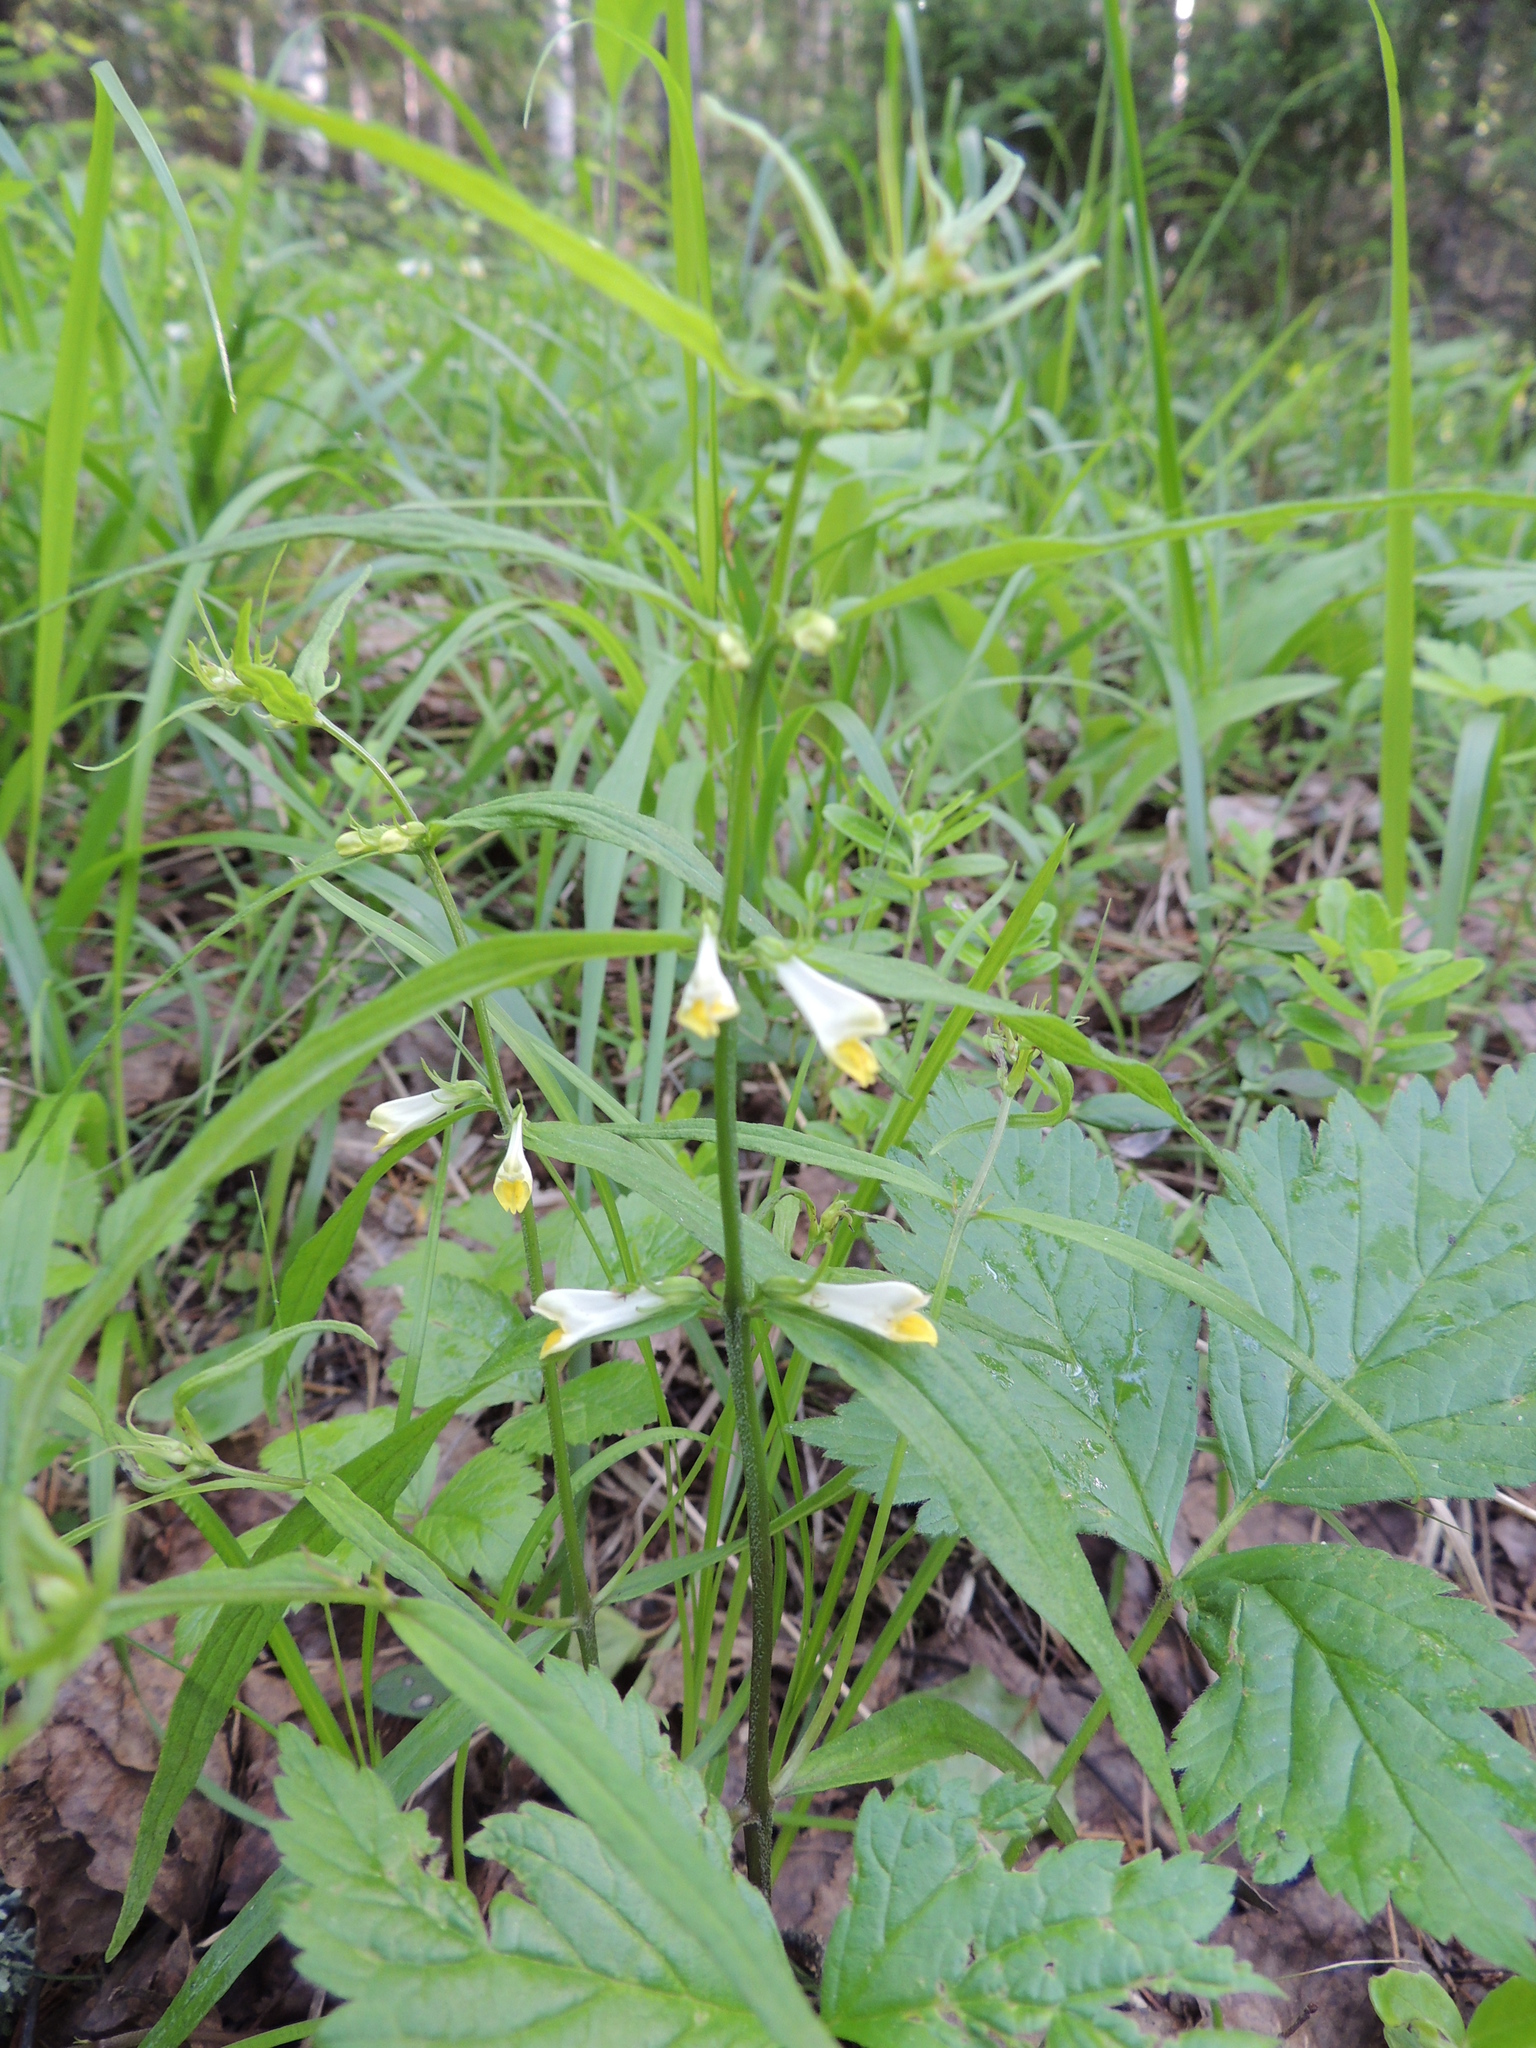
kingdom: Plantae
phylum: Tracheophyta
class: Magnoliopsida
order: Lamiales
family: Orobanchaceae
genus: Melampyrum
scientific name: Melampyrum pratense
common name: Common cow-wheat
